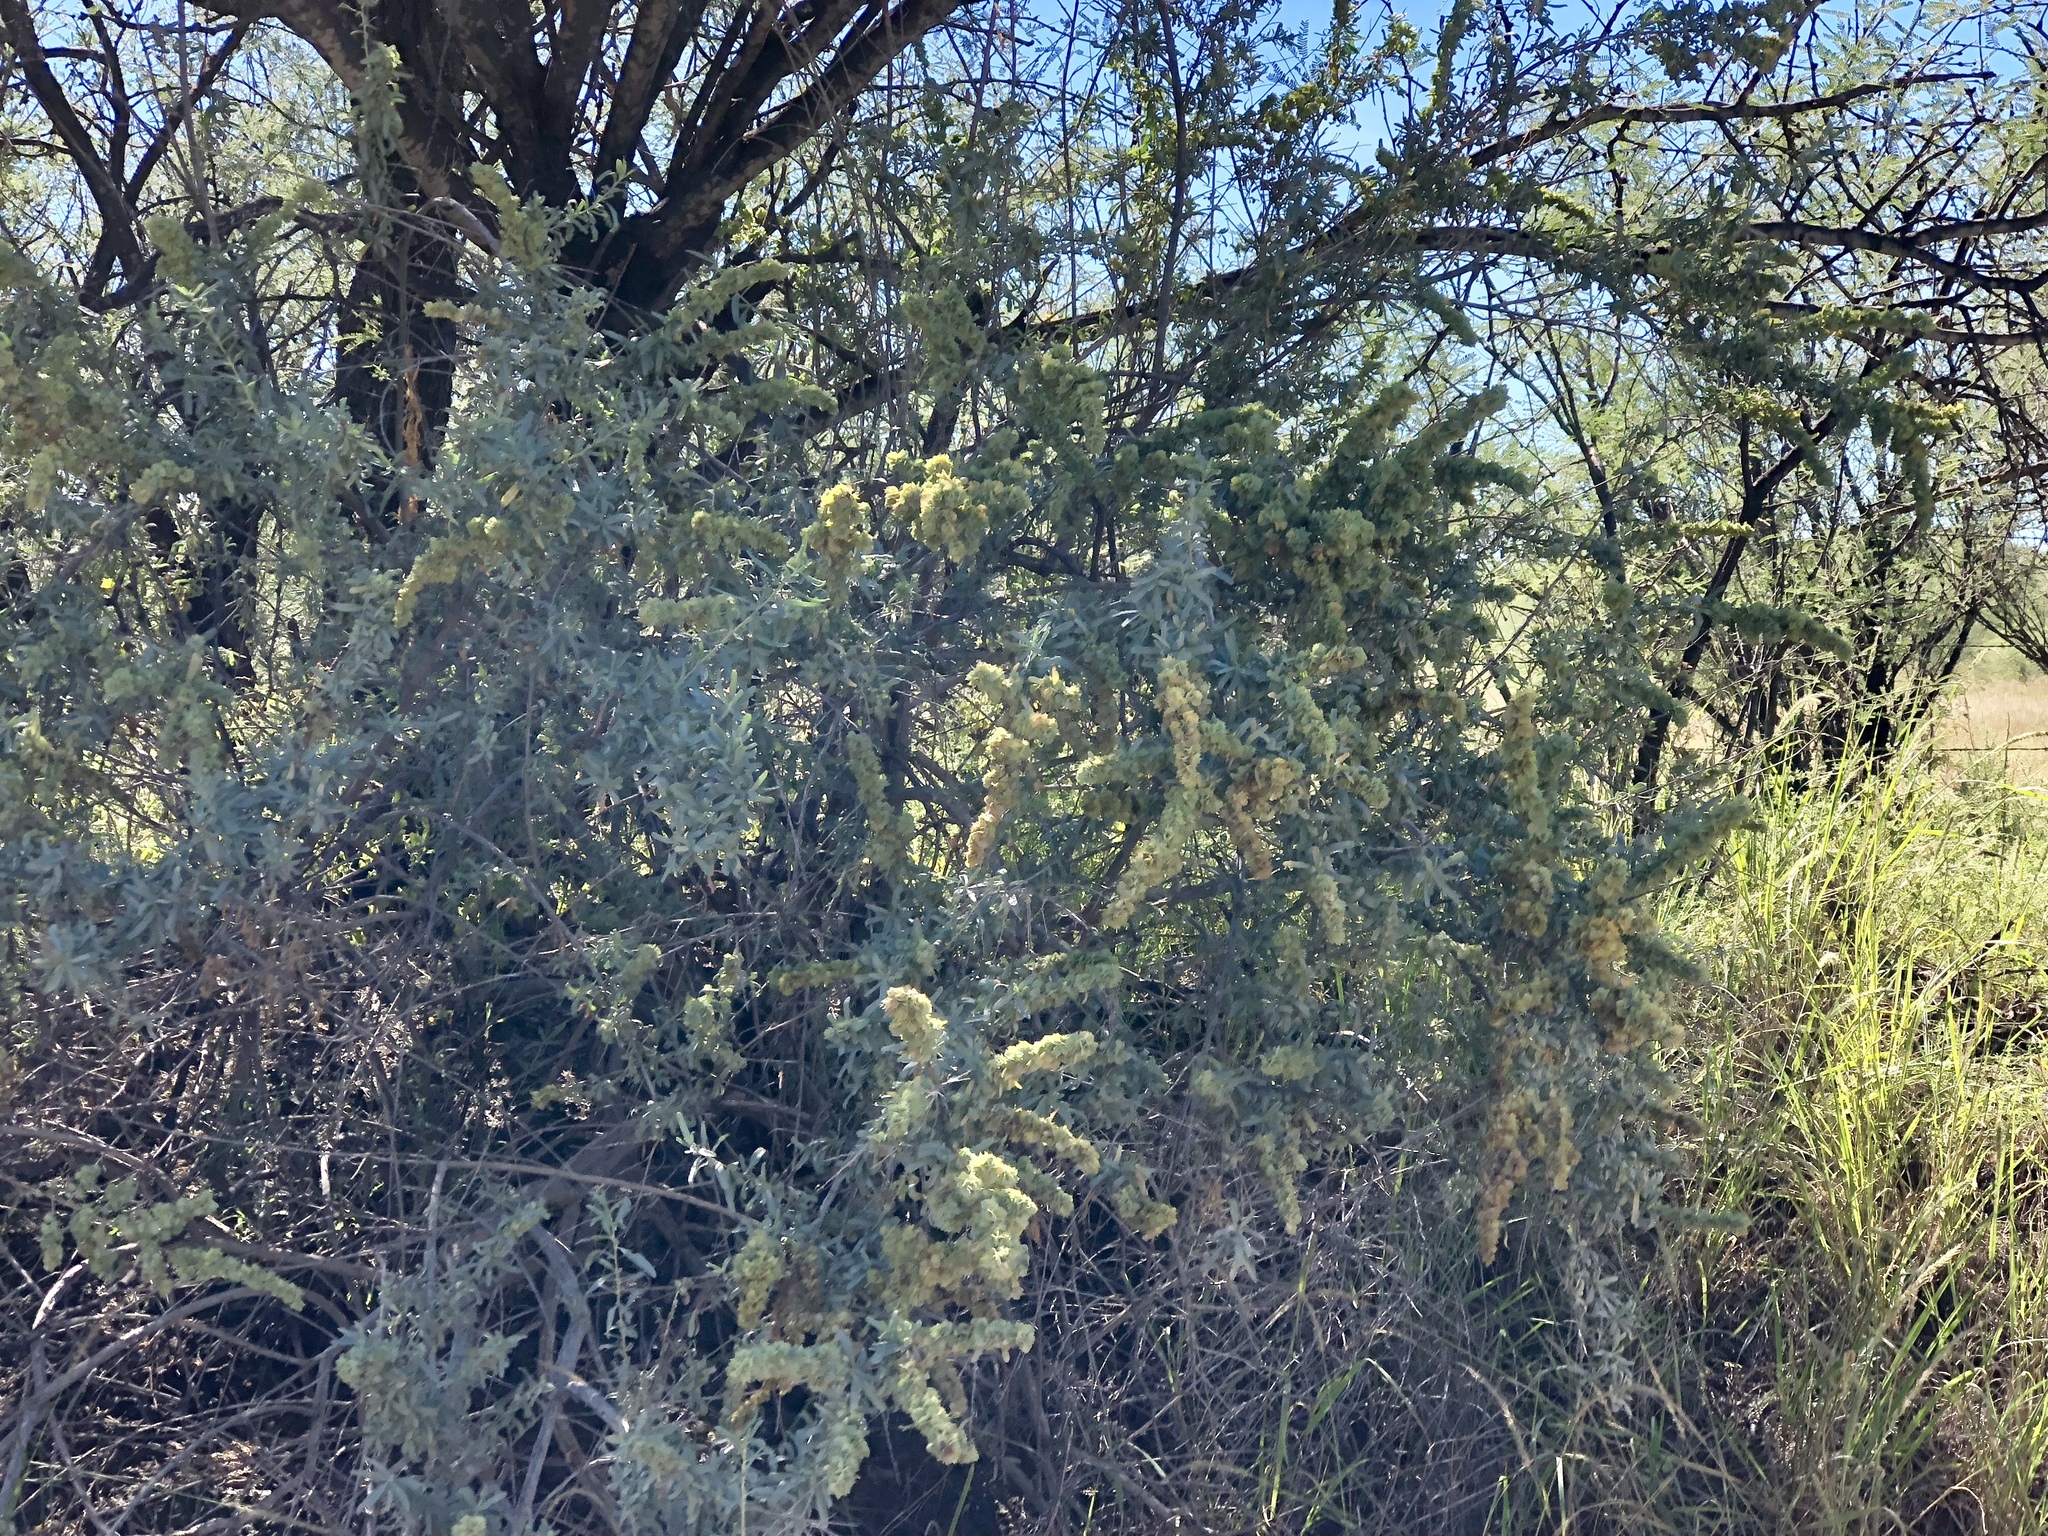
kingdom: Plantae
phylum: Tracheophyta
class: Magnoliopsida
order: Caryophyllales
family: Amaranthaceae
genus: Atriplex
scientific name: Atriplex canescens
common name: Four-wing saltbush
